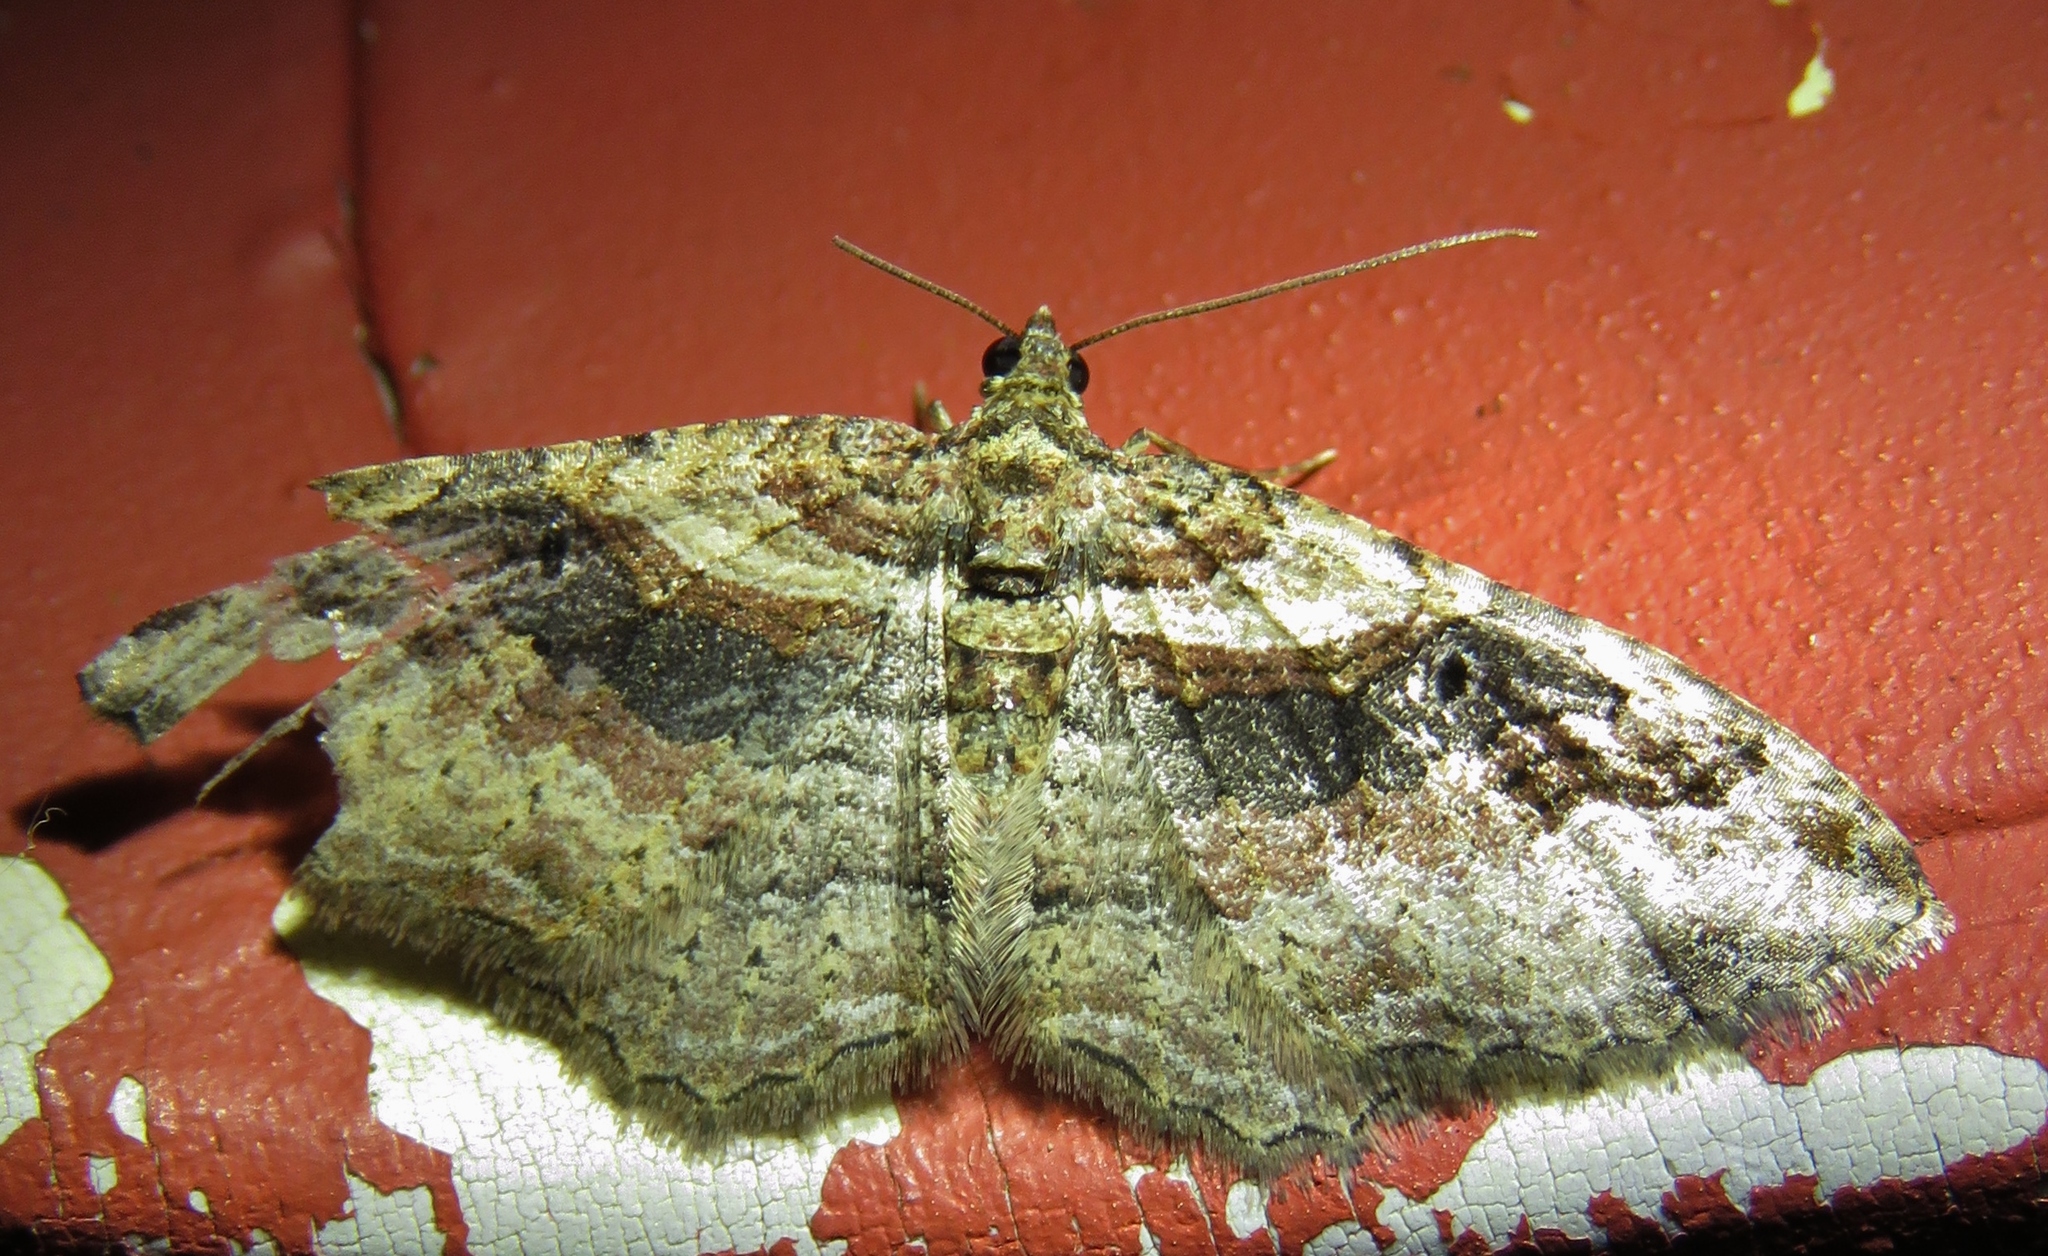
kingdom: Animalia
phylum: Arthropoda
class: Insecta
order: Lepidoptera
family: Geometridae
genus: Costaconvexa
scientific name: Costaconvexa centrostrigaria
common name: Bent-line carpet
